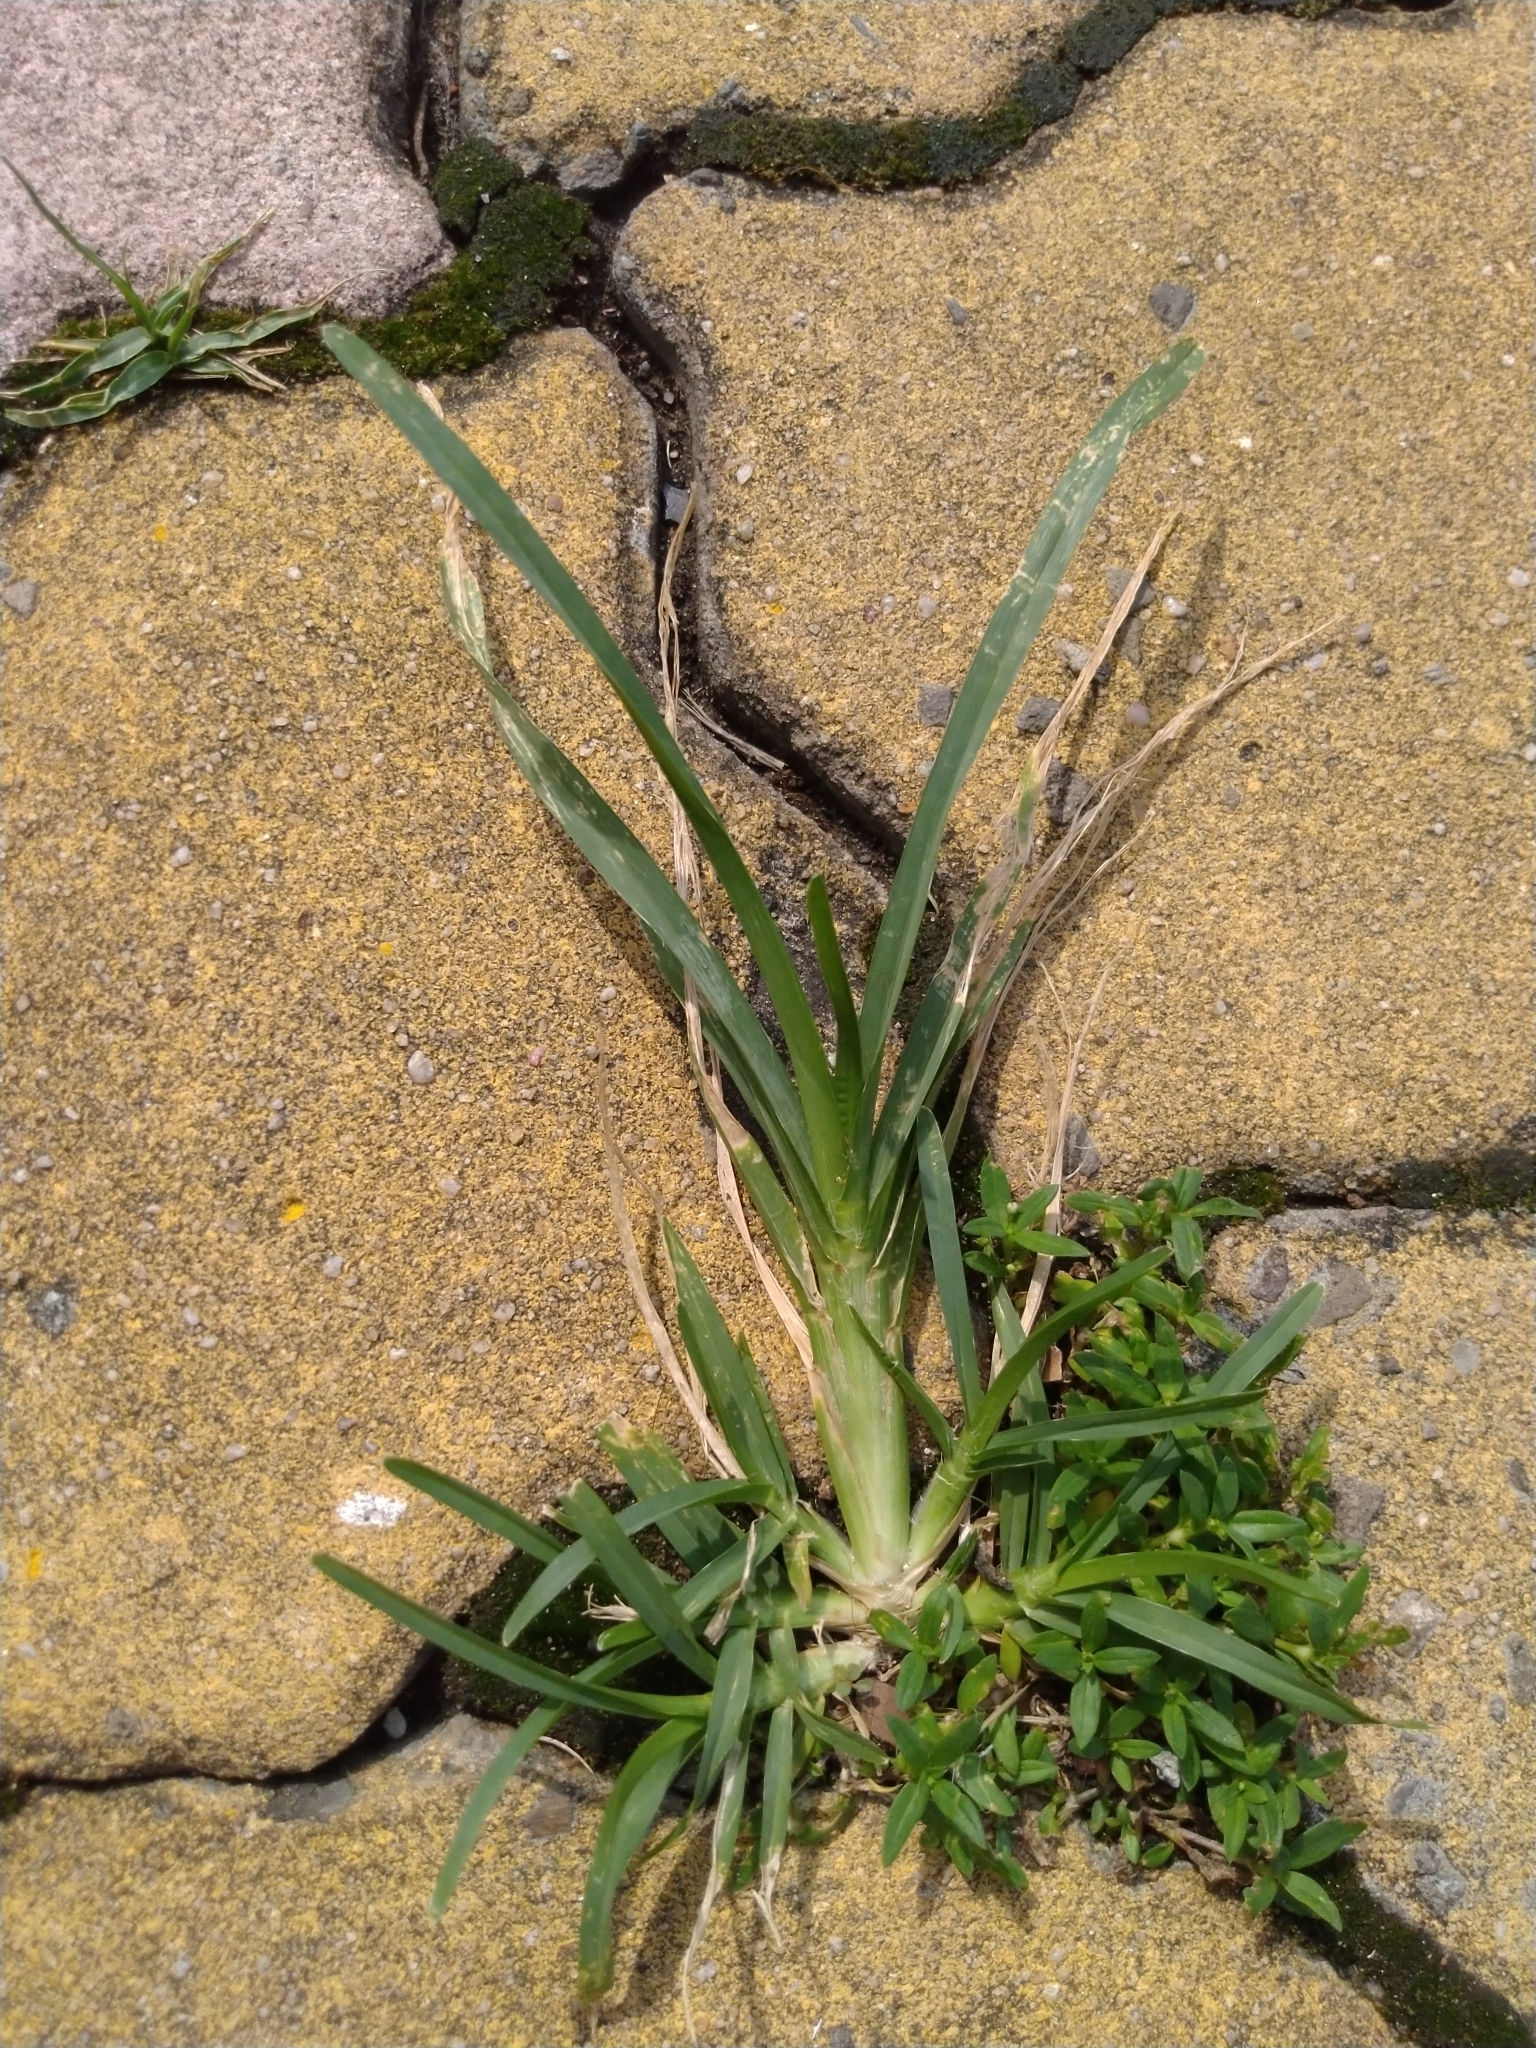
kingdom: Plantae
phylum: Tracheophyta
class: Liliopsida
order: Poales
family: Poaceae
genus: Eleusine
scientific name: Eleusine indica
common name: Yard-grass
